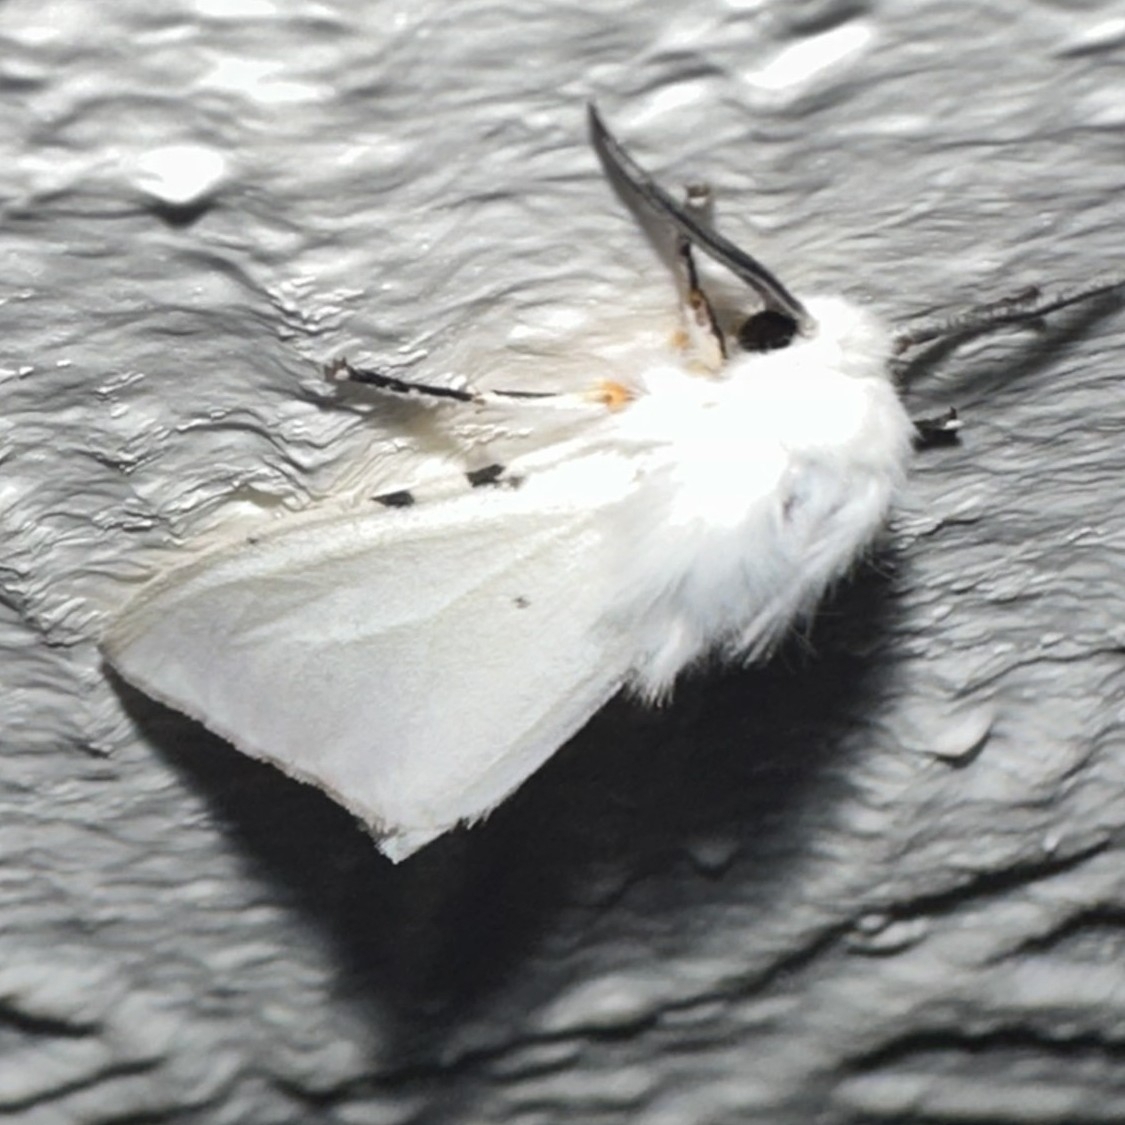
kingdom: Animalia
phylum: Arthropoda
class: Insecta
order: Lepidoptera
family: Erebidae
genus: Hyphantria
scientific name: Hyphantria cunea
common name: American white moth
